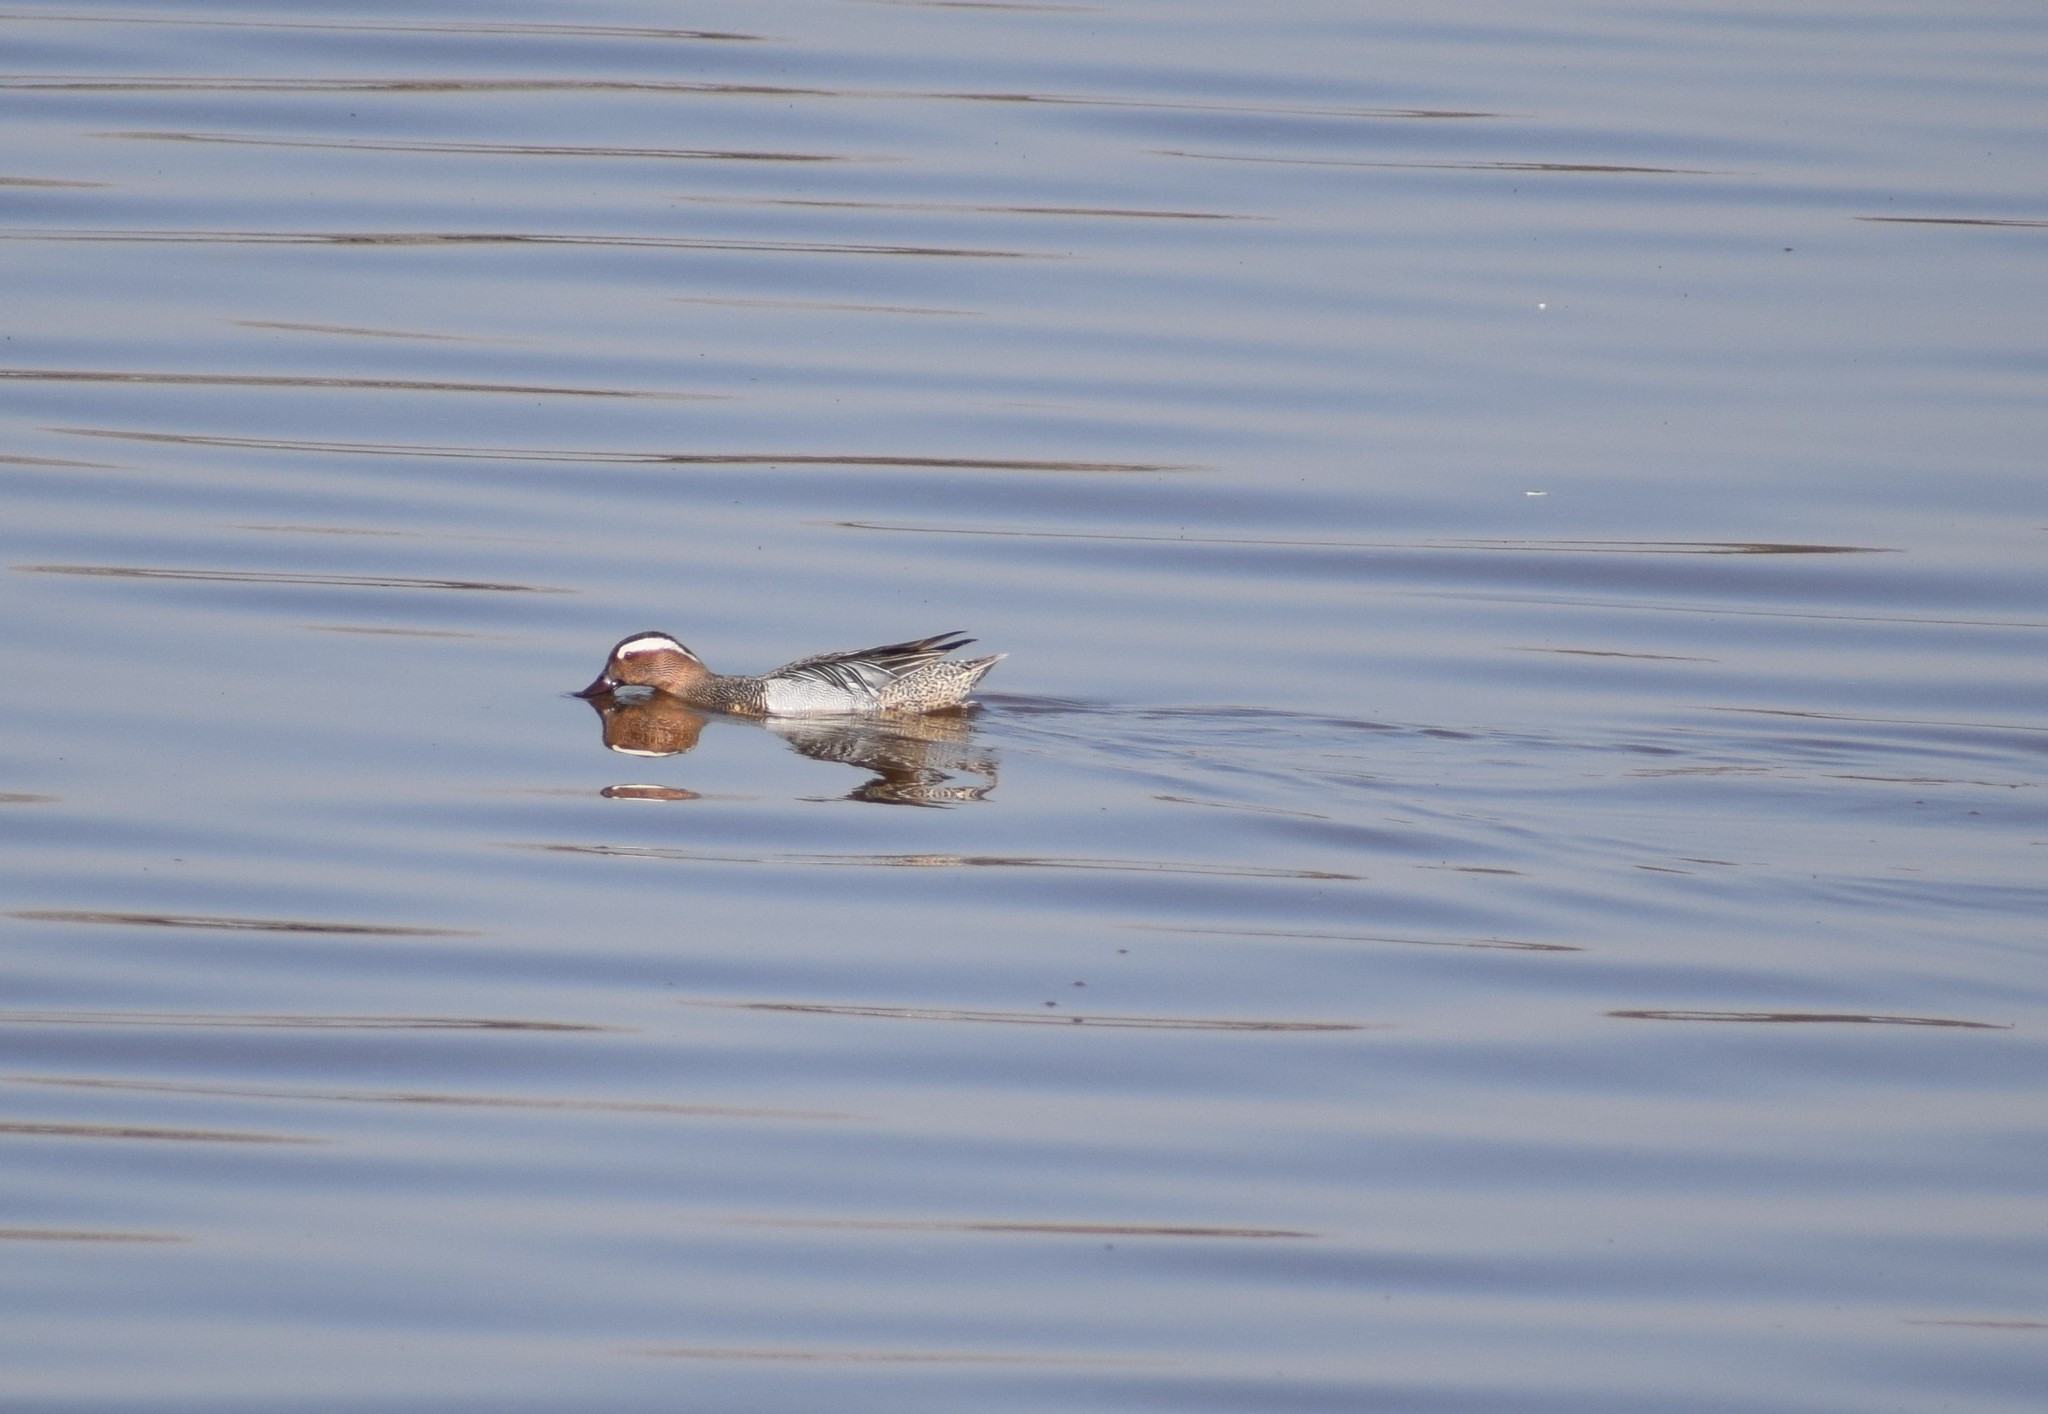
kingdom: Animalia
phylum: Chordata
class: Aves
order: Anseriformes
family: Anatidae
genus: Spatula
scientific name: Spatula querquedula
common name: Garganey
